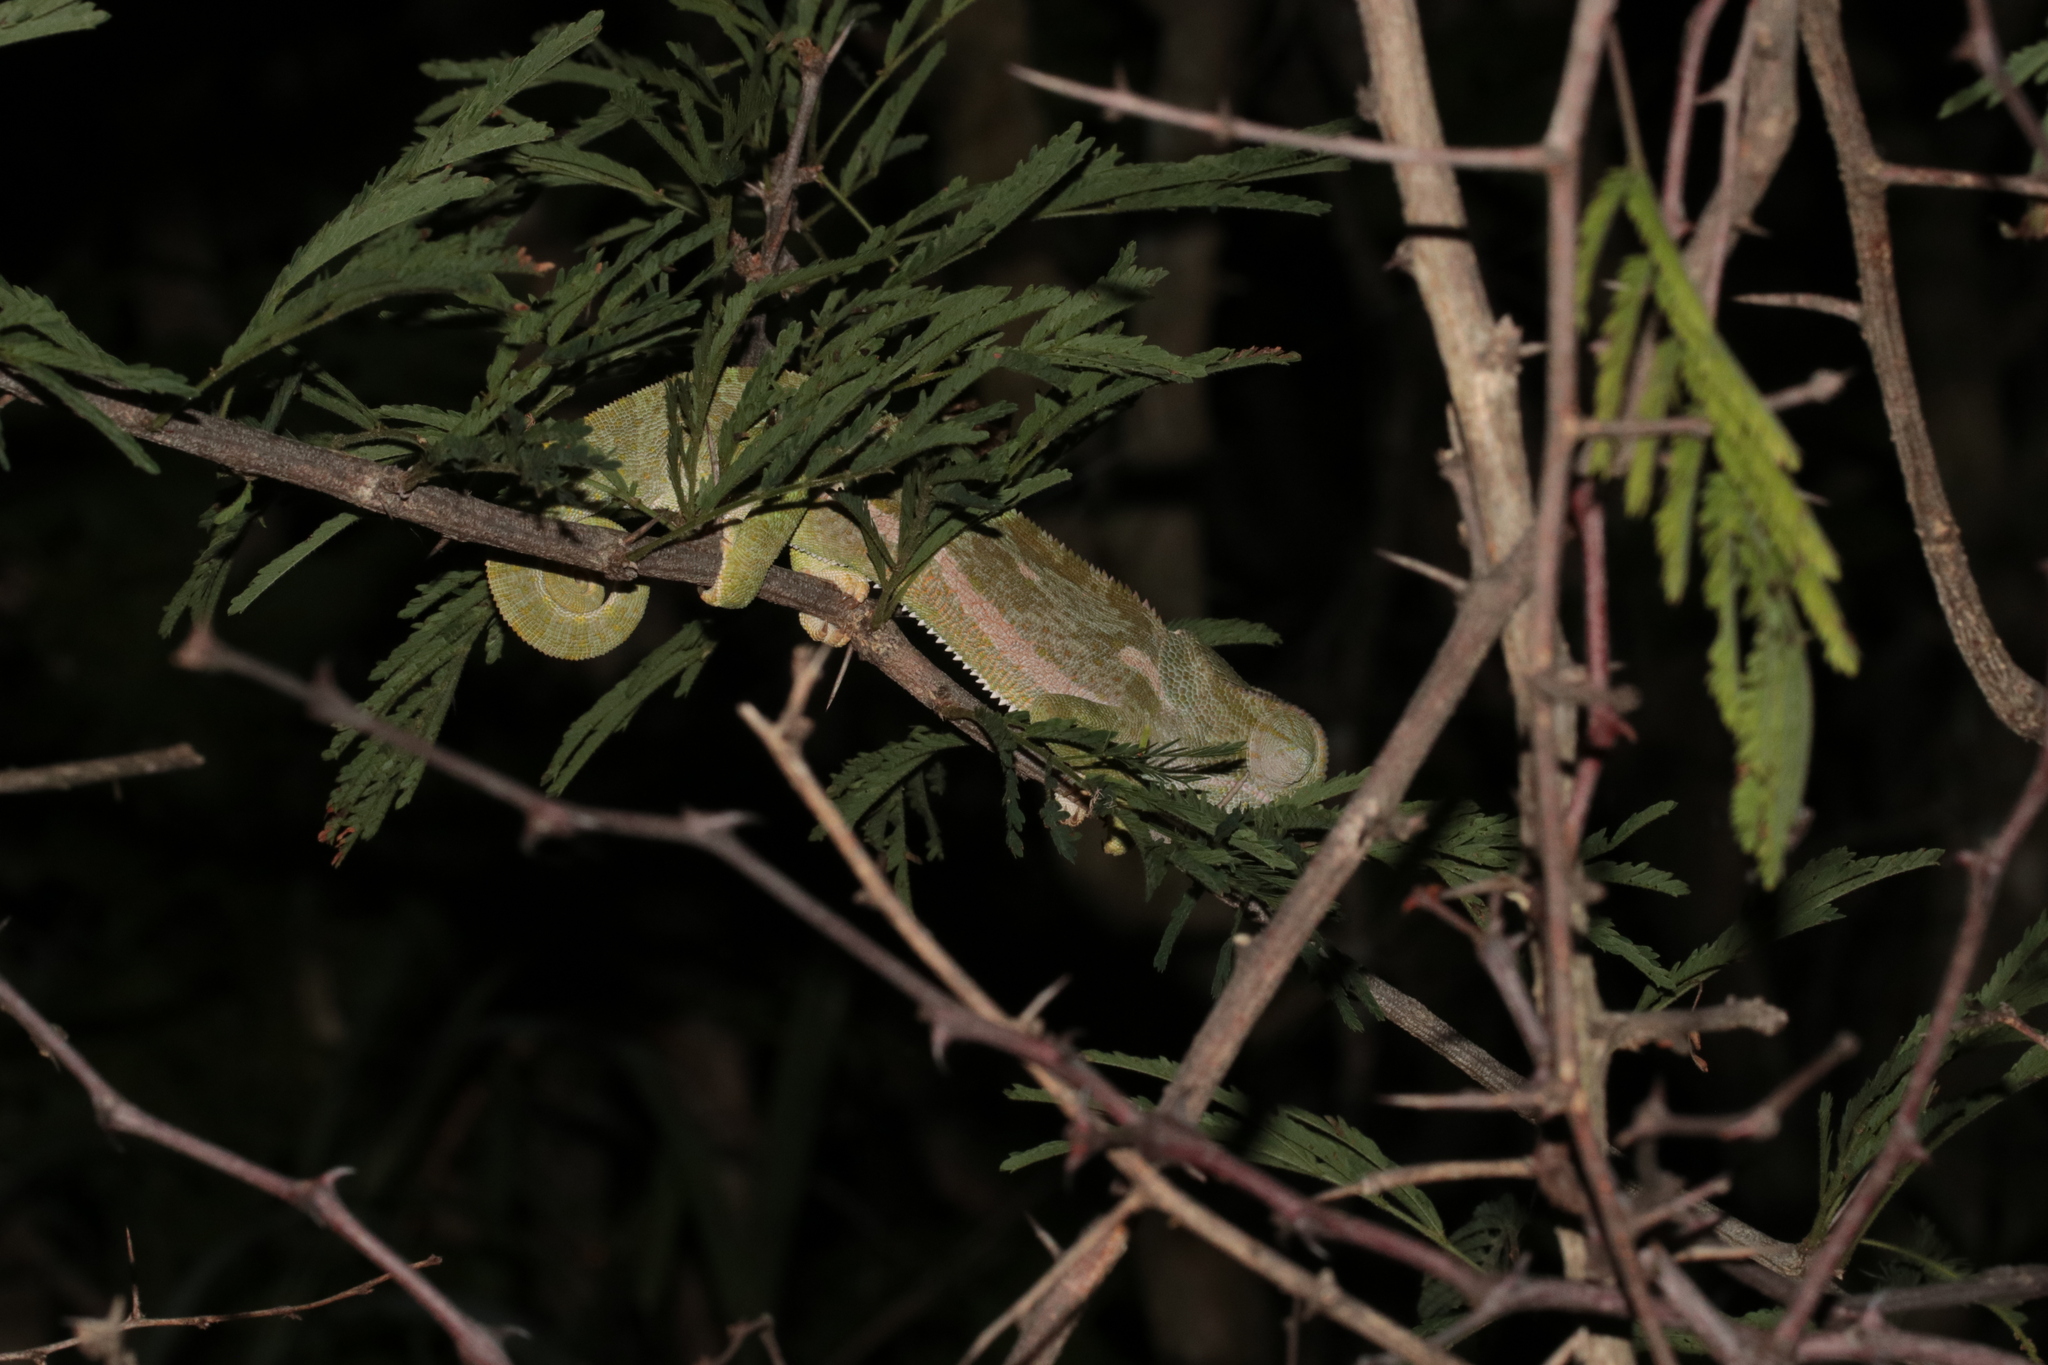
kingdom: Animalia
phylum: Chordata
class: Squamata
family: Chamaeleonidae
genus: Chamaeleo
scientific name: Chamaeleo dilepis
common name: Flapneck chameleon
